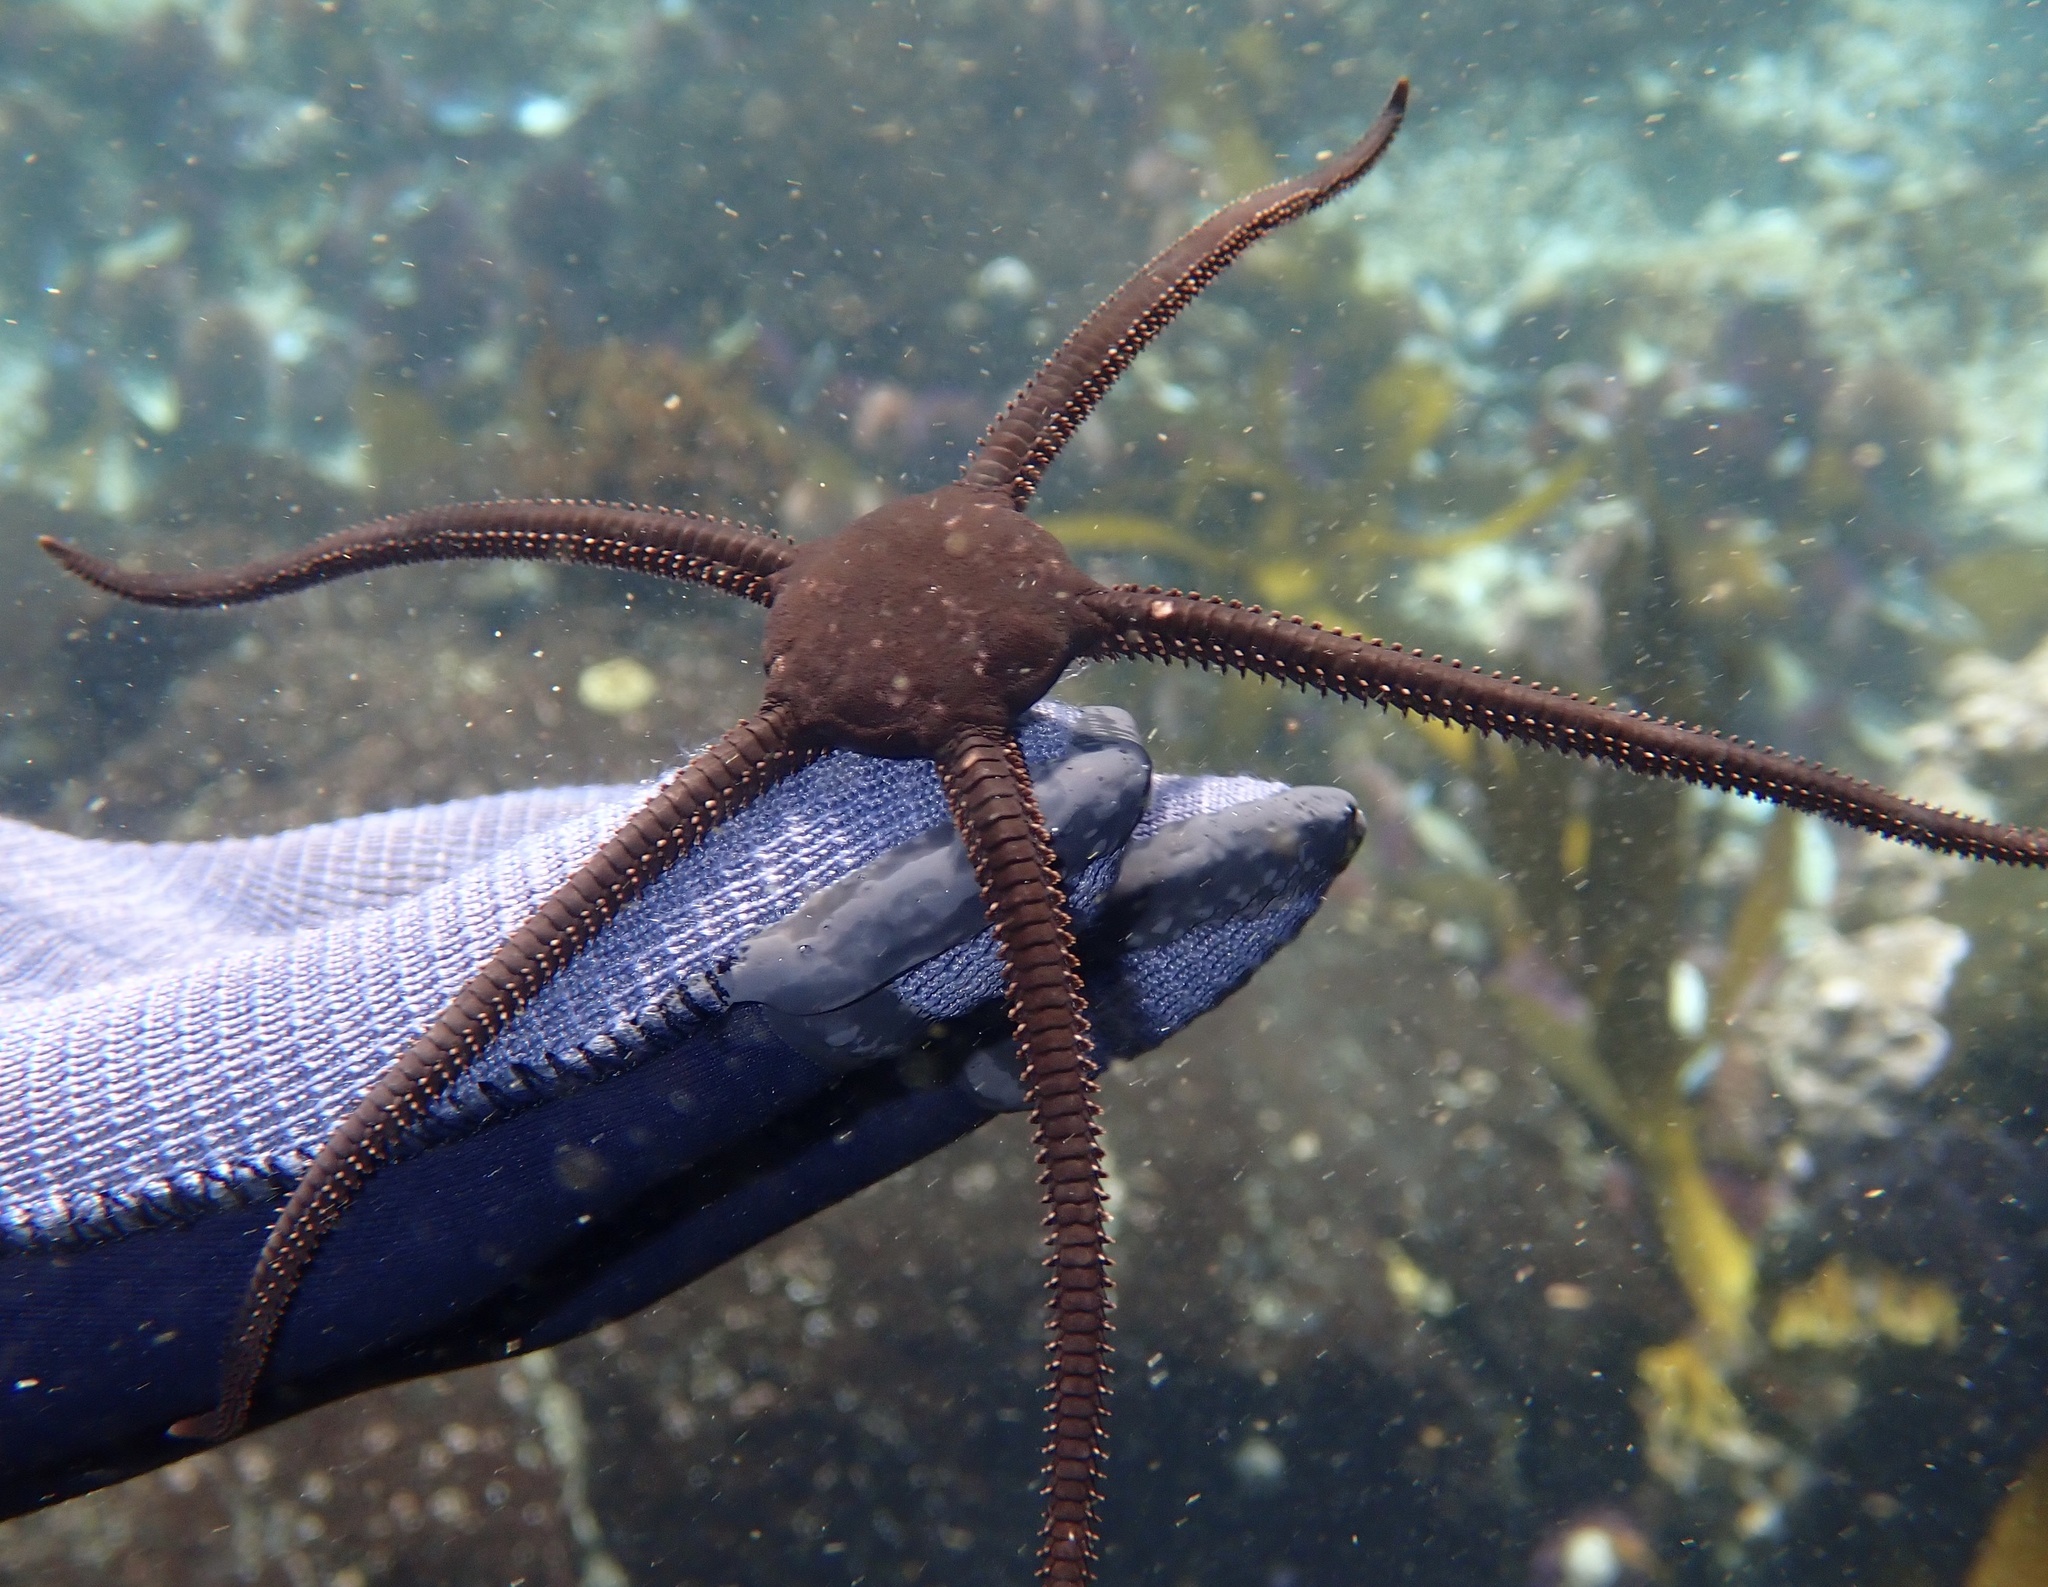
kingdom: Animalia
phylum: Echinodermata
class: Ophiuroidea
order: Ophiacanthida
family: Ophiodermatidae
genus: Ophioderma
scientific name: Ophioderma wahlbergii
